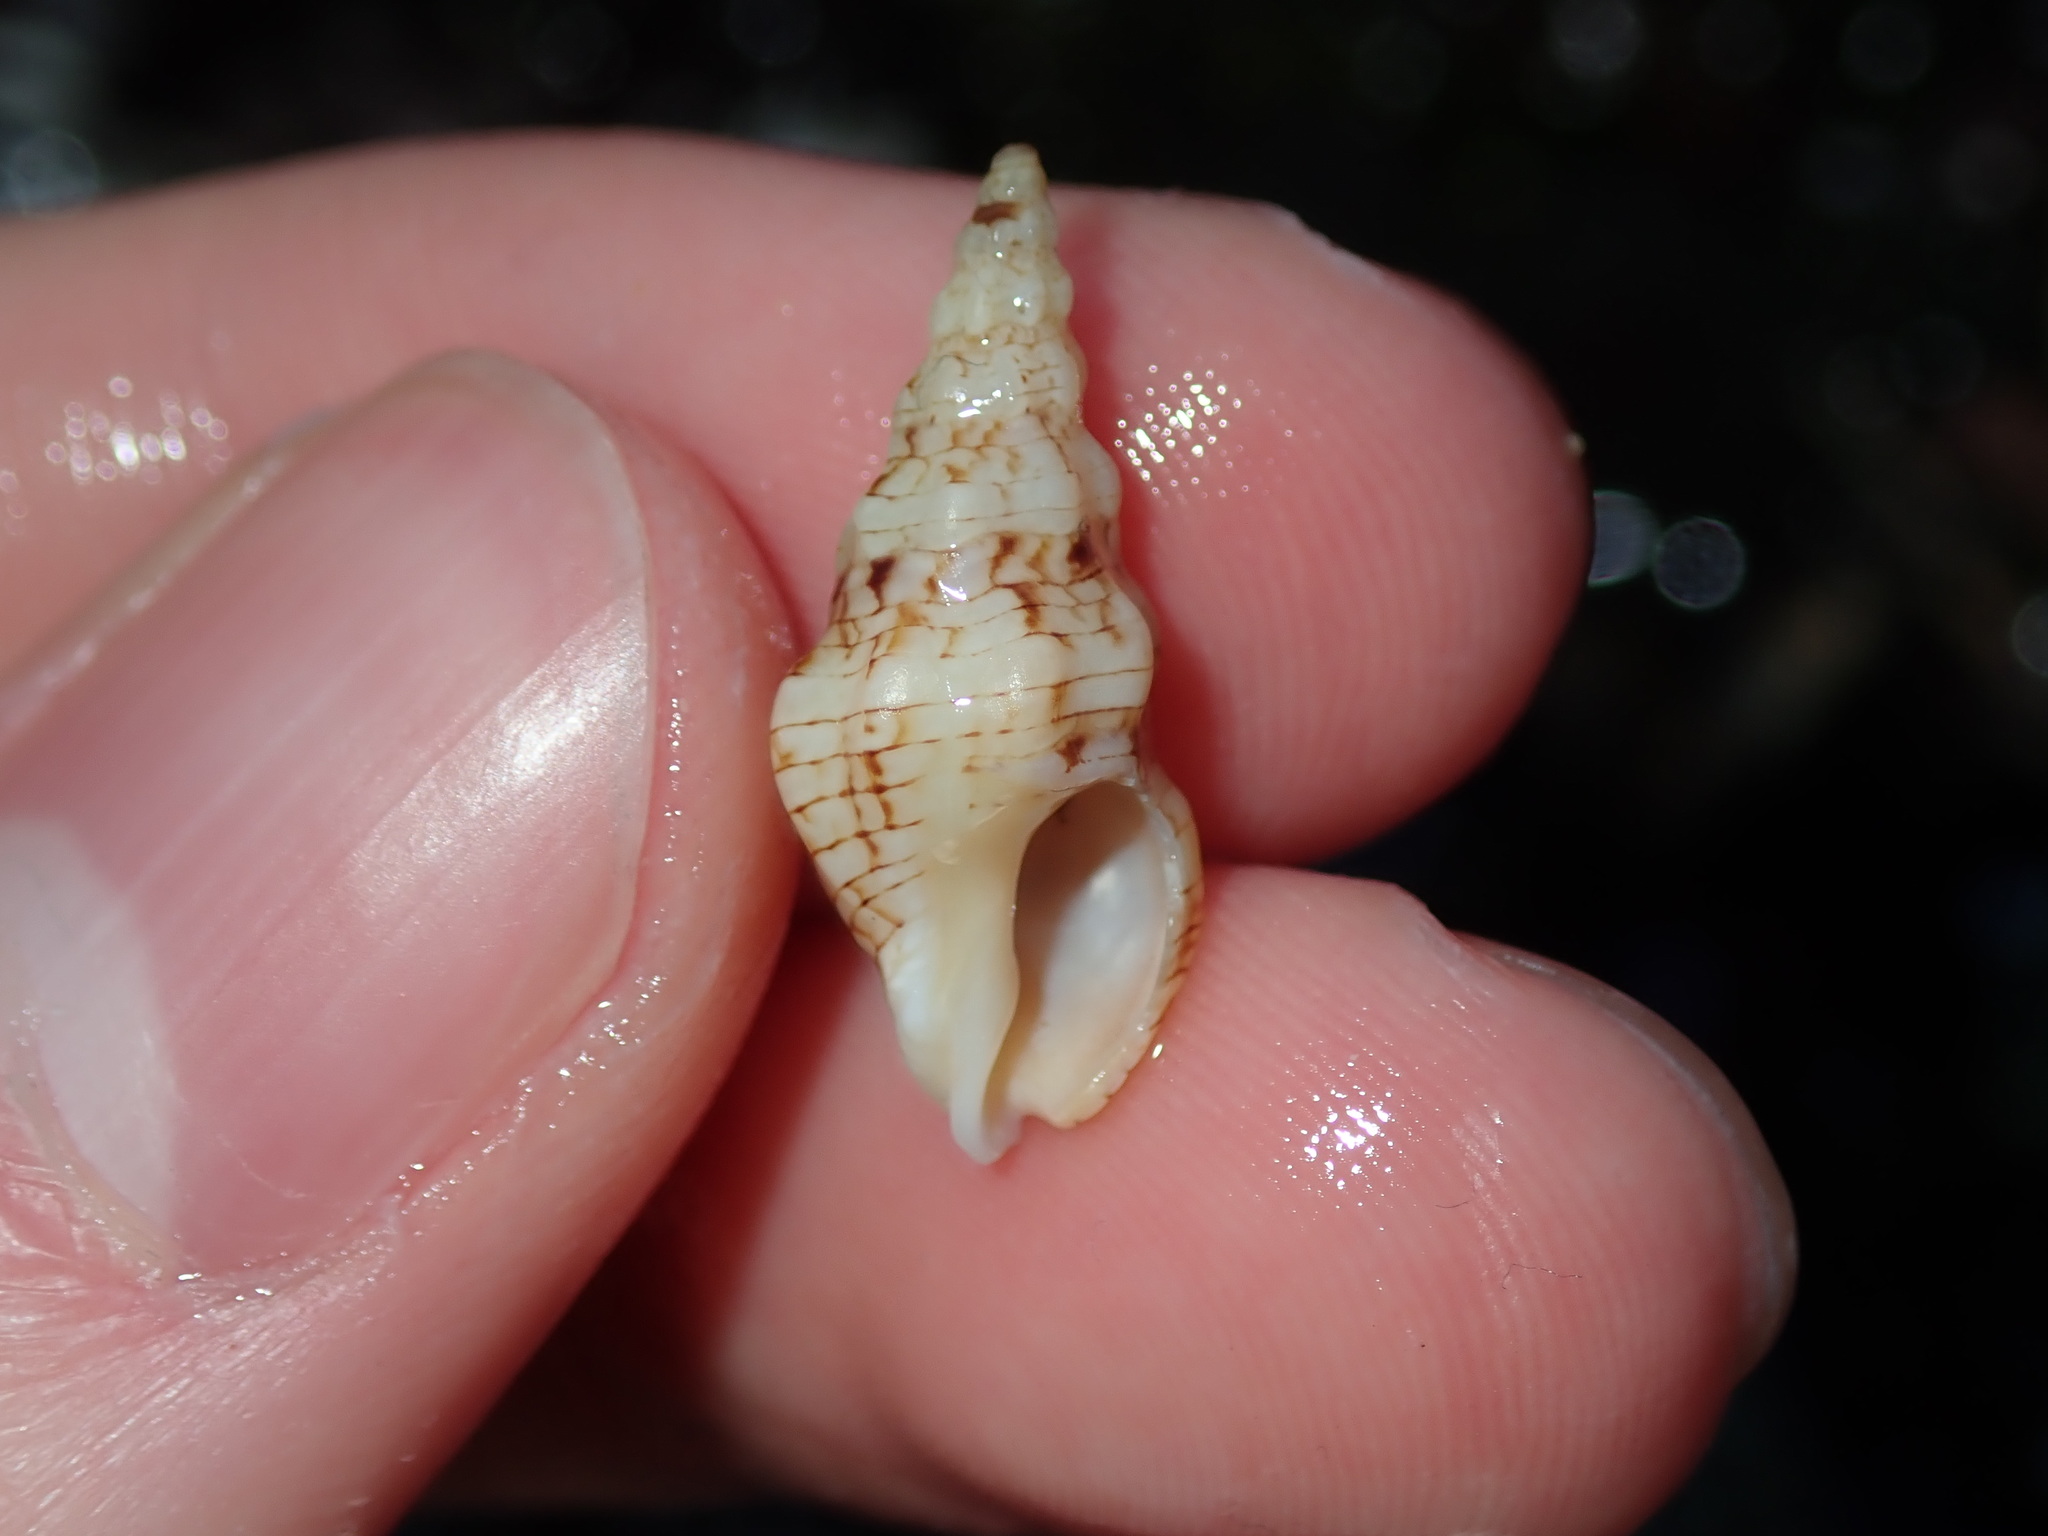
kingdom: Animalia
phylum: Mollusca
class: Gastropoda
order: Neogastropoda
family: Cominellidae
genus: Cominella
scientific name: Cominella eburnea
